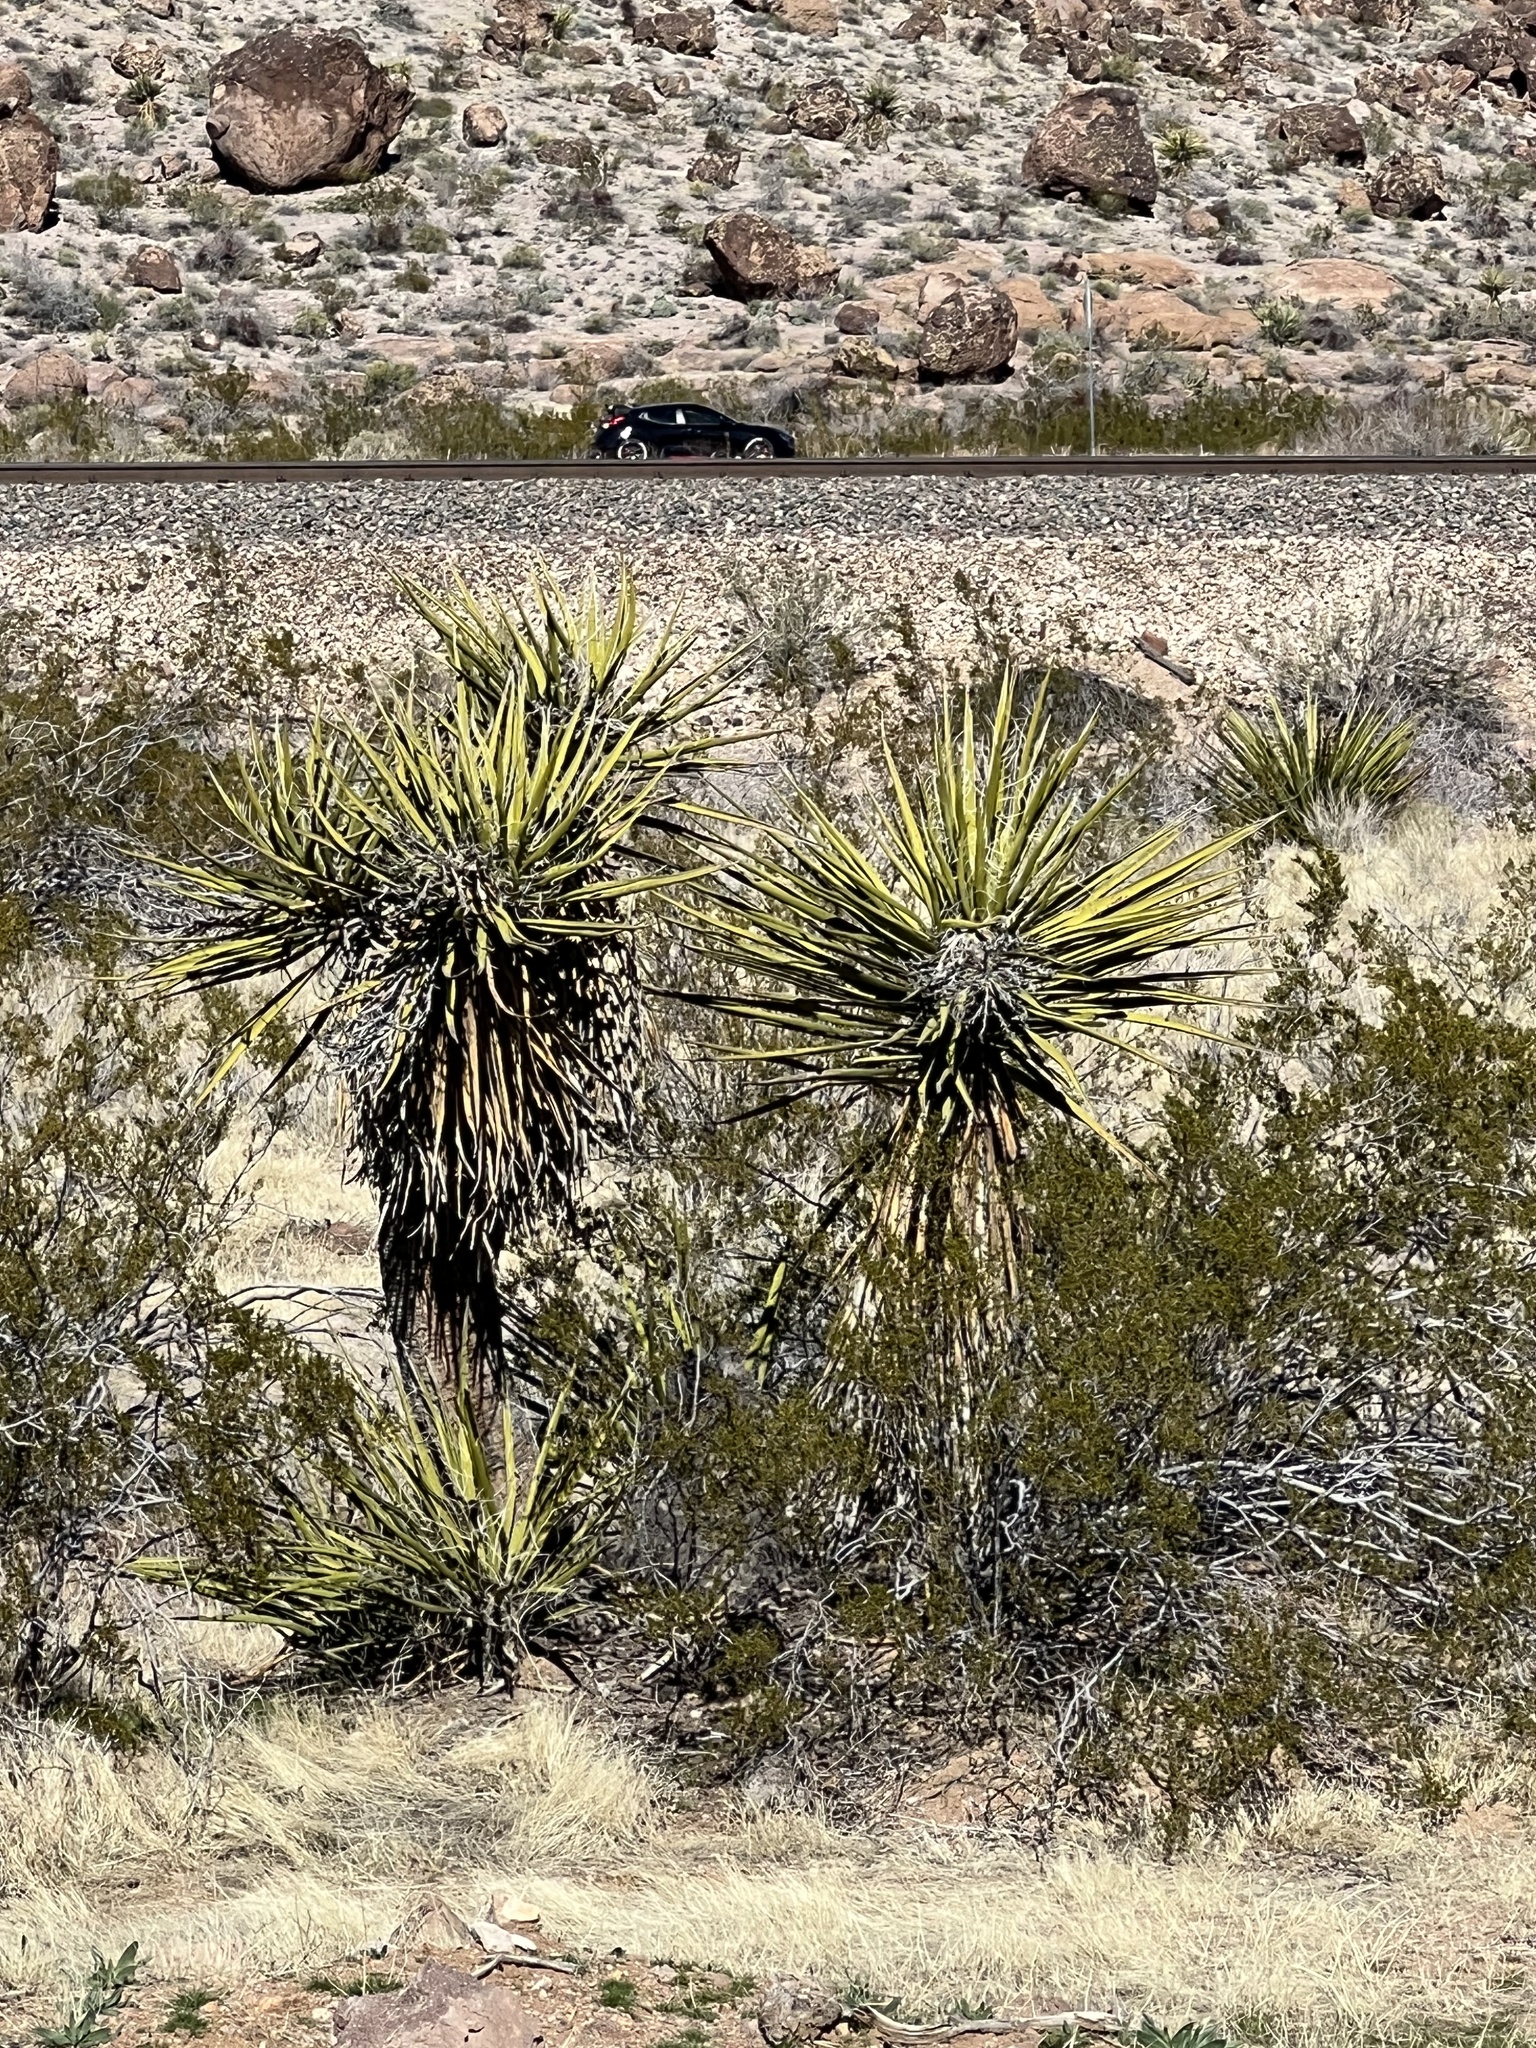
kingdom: Plantae
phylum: Tracheophyta
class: Liliopsida
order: Asparagales
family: Asparagaceae
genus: Yucca
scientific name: Yucca schidigera
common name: Mojave yucca
